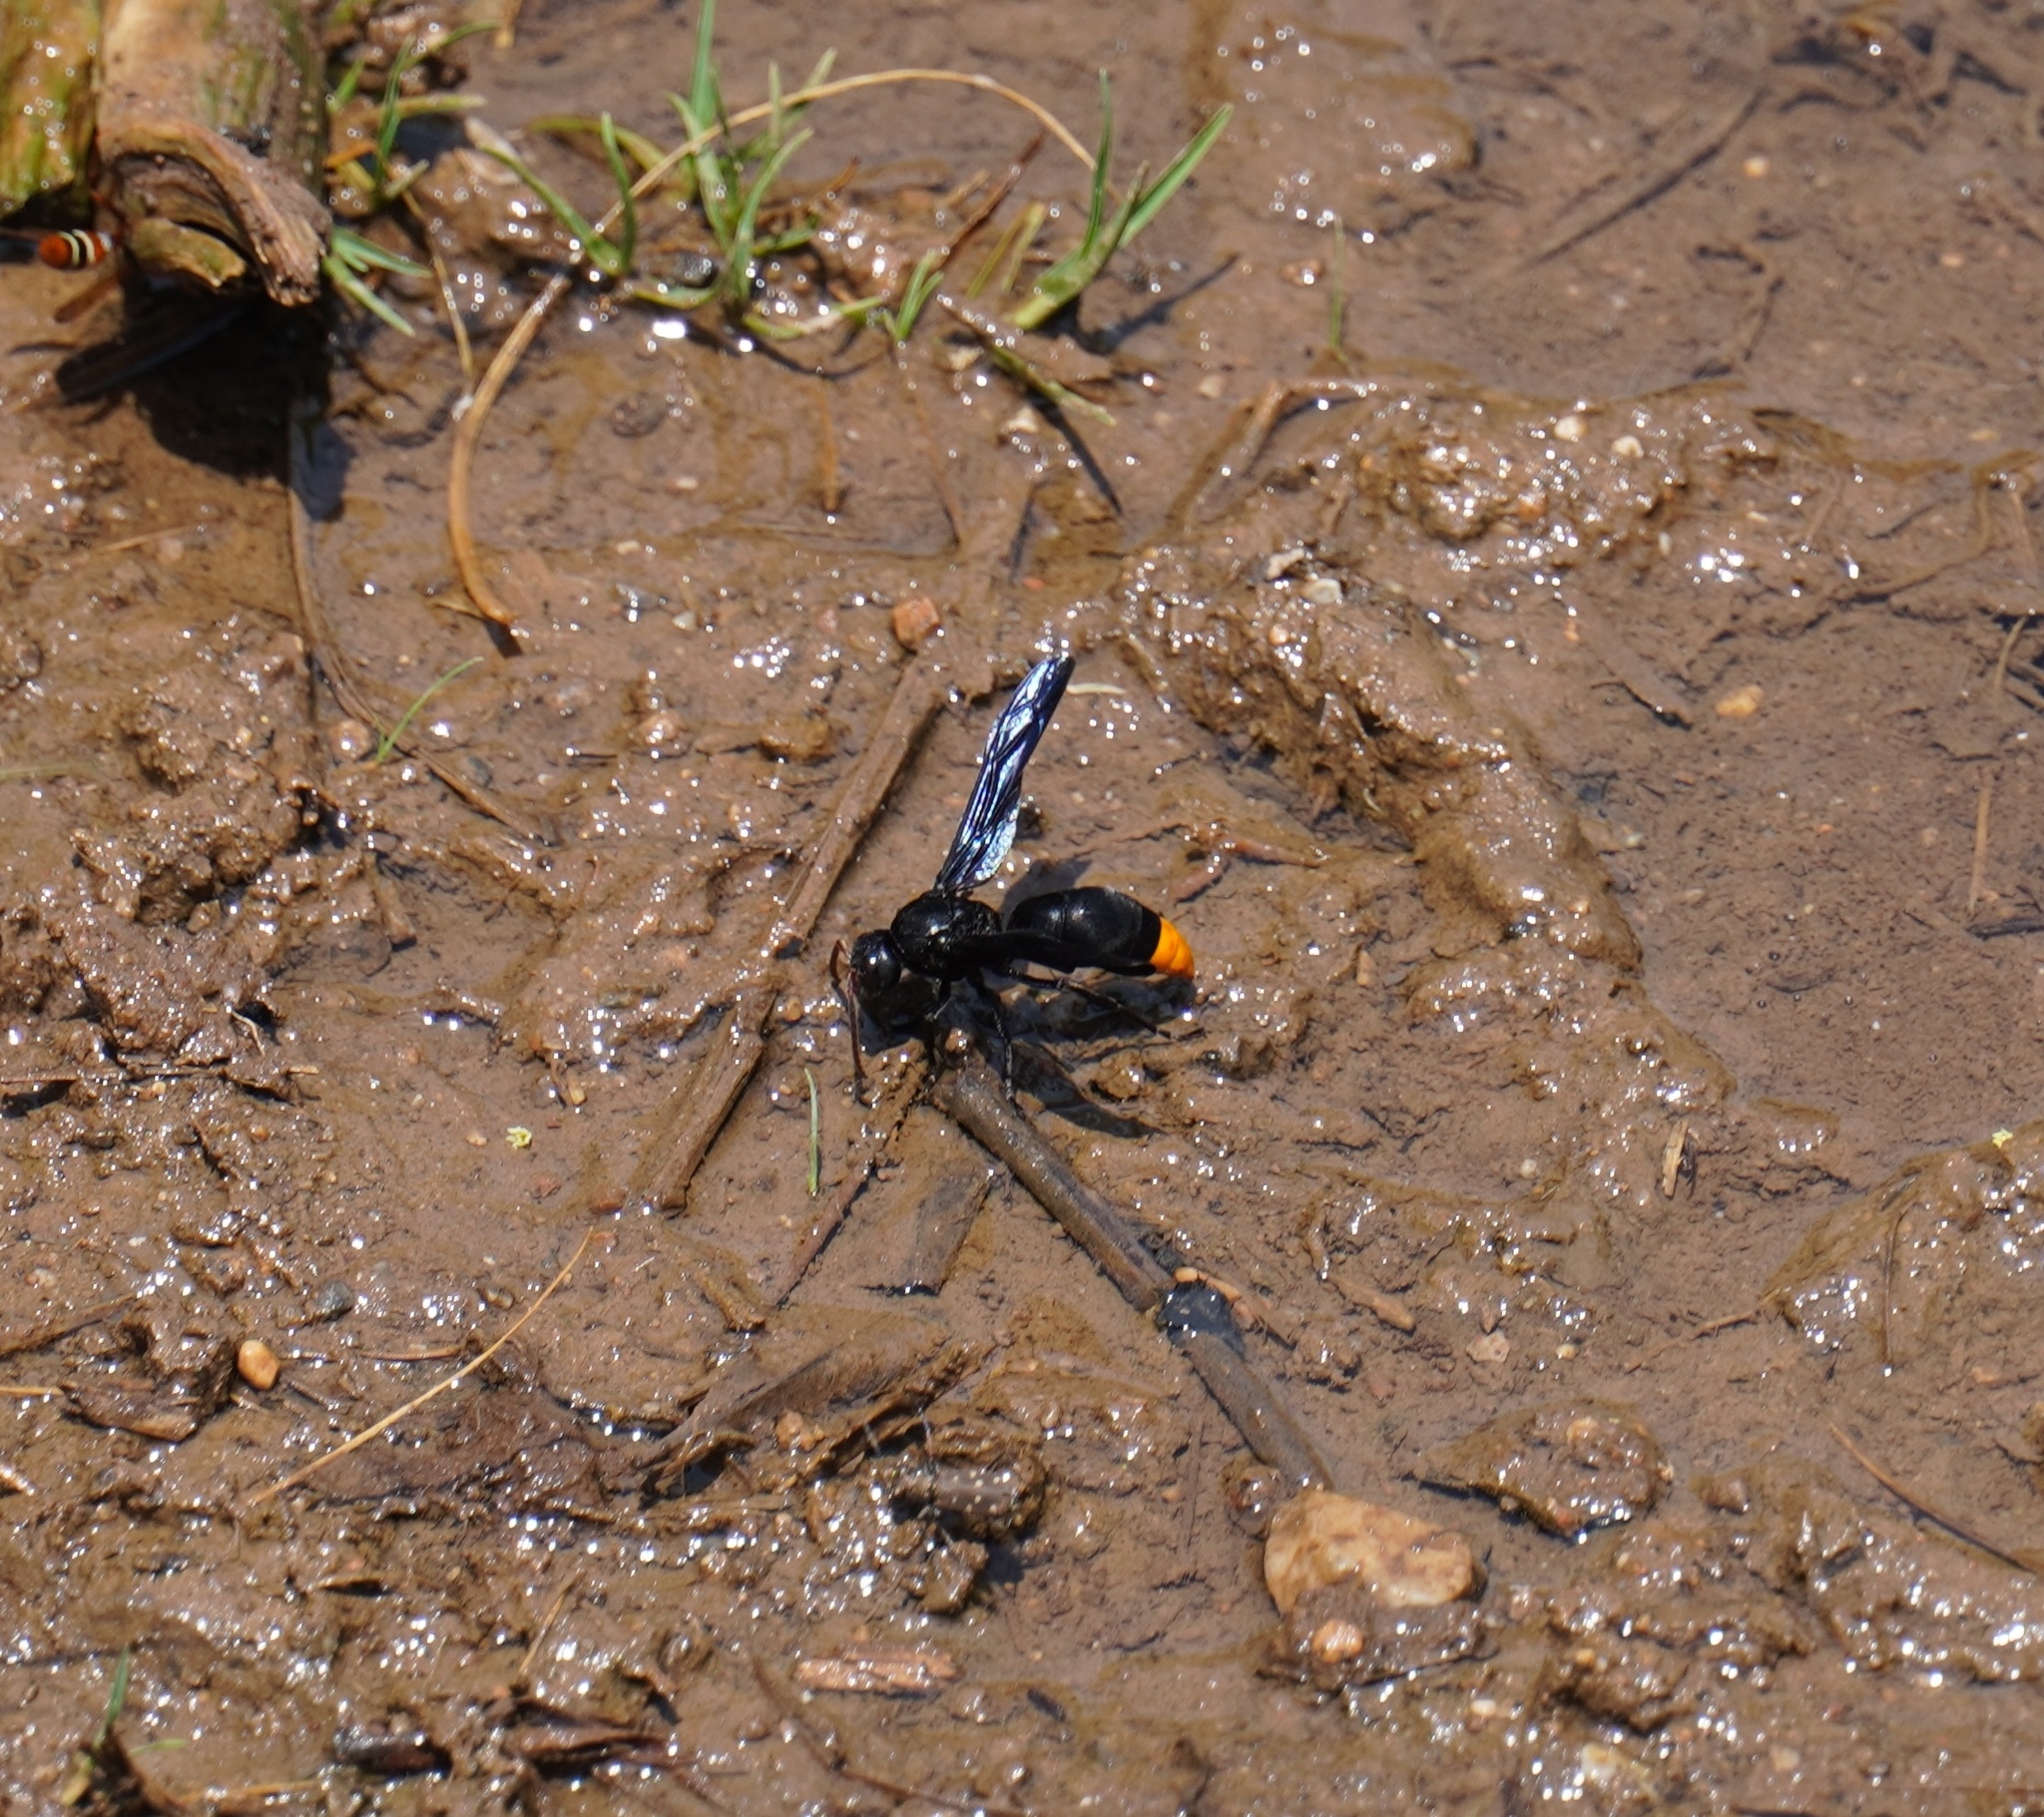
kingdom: Animalia
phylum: Arthropoda
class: Insecta
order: Hymenoptera
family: Vespidae
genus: Synagris
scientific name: Synagris
